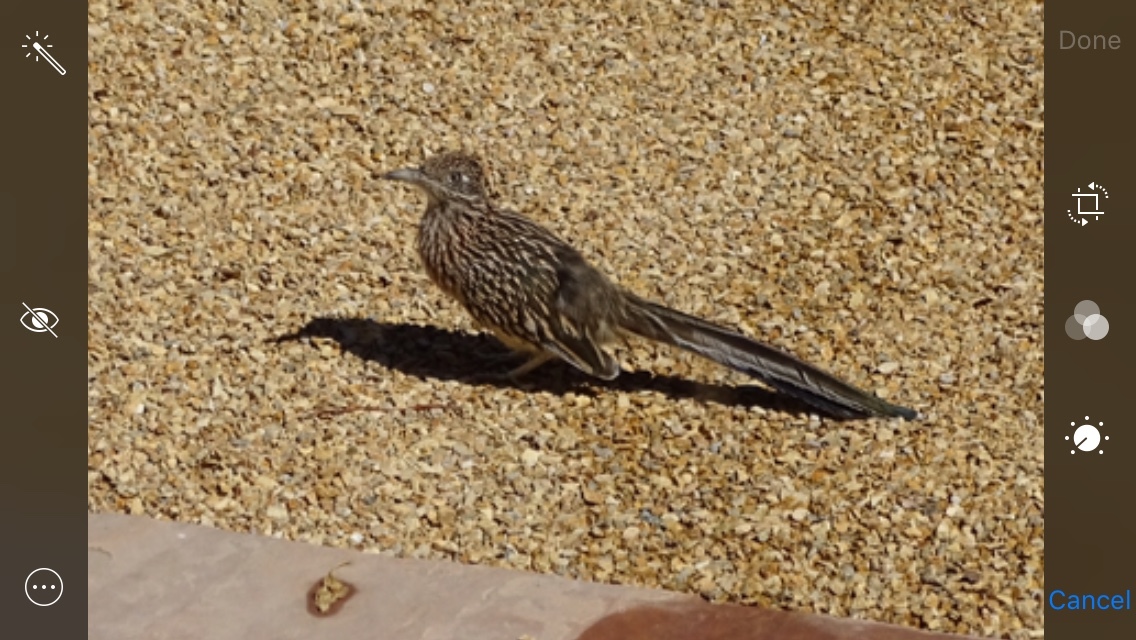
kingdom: Animalia
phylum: Chordata
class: Aves
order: Cuculiformes
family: Cuculidae
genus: Geococcyx
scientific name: Geococcyx californianus
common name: Greater roadrunner
